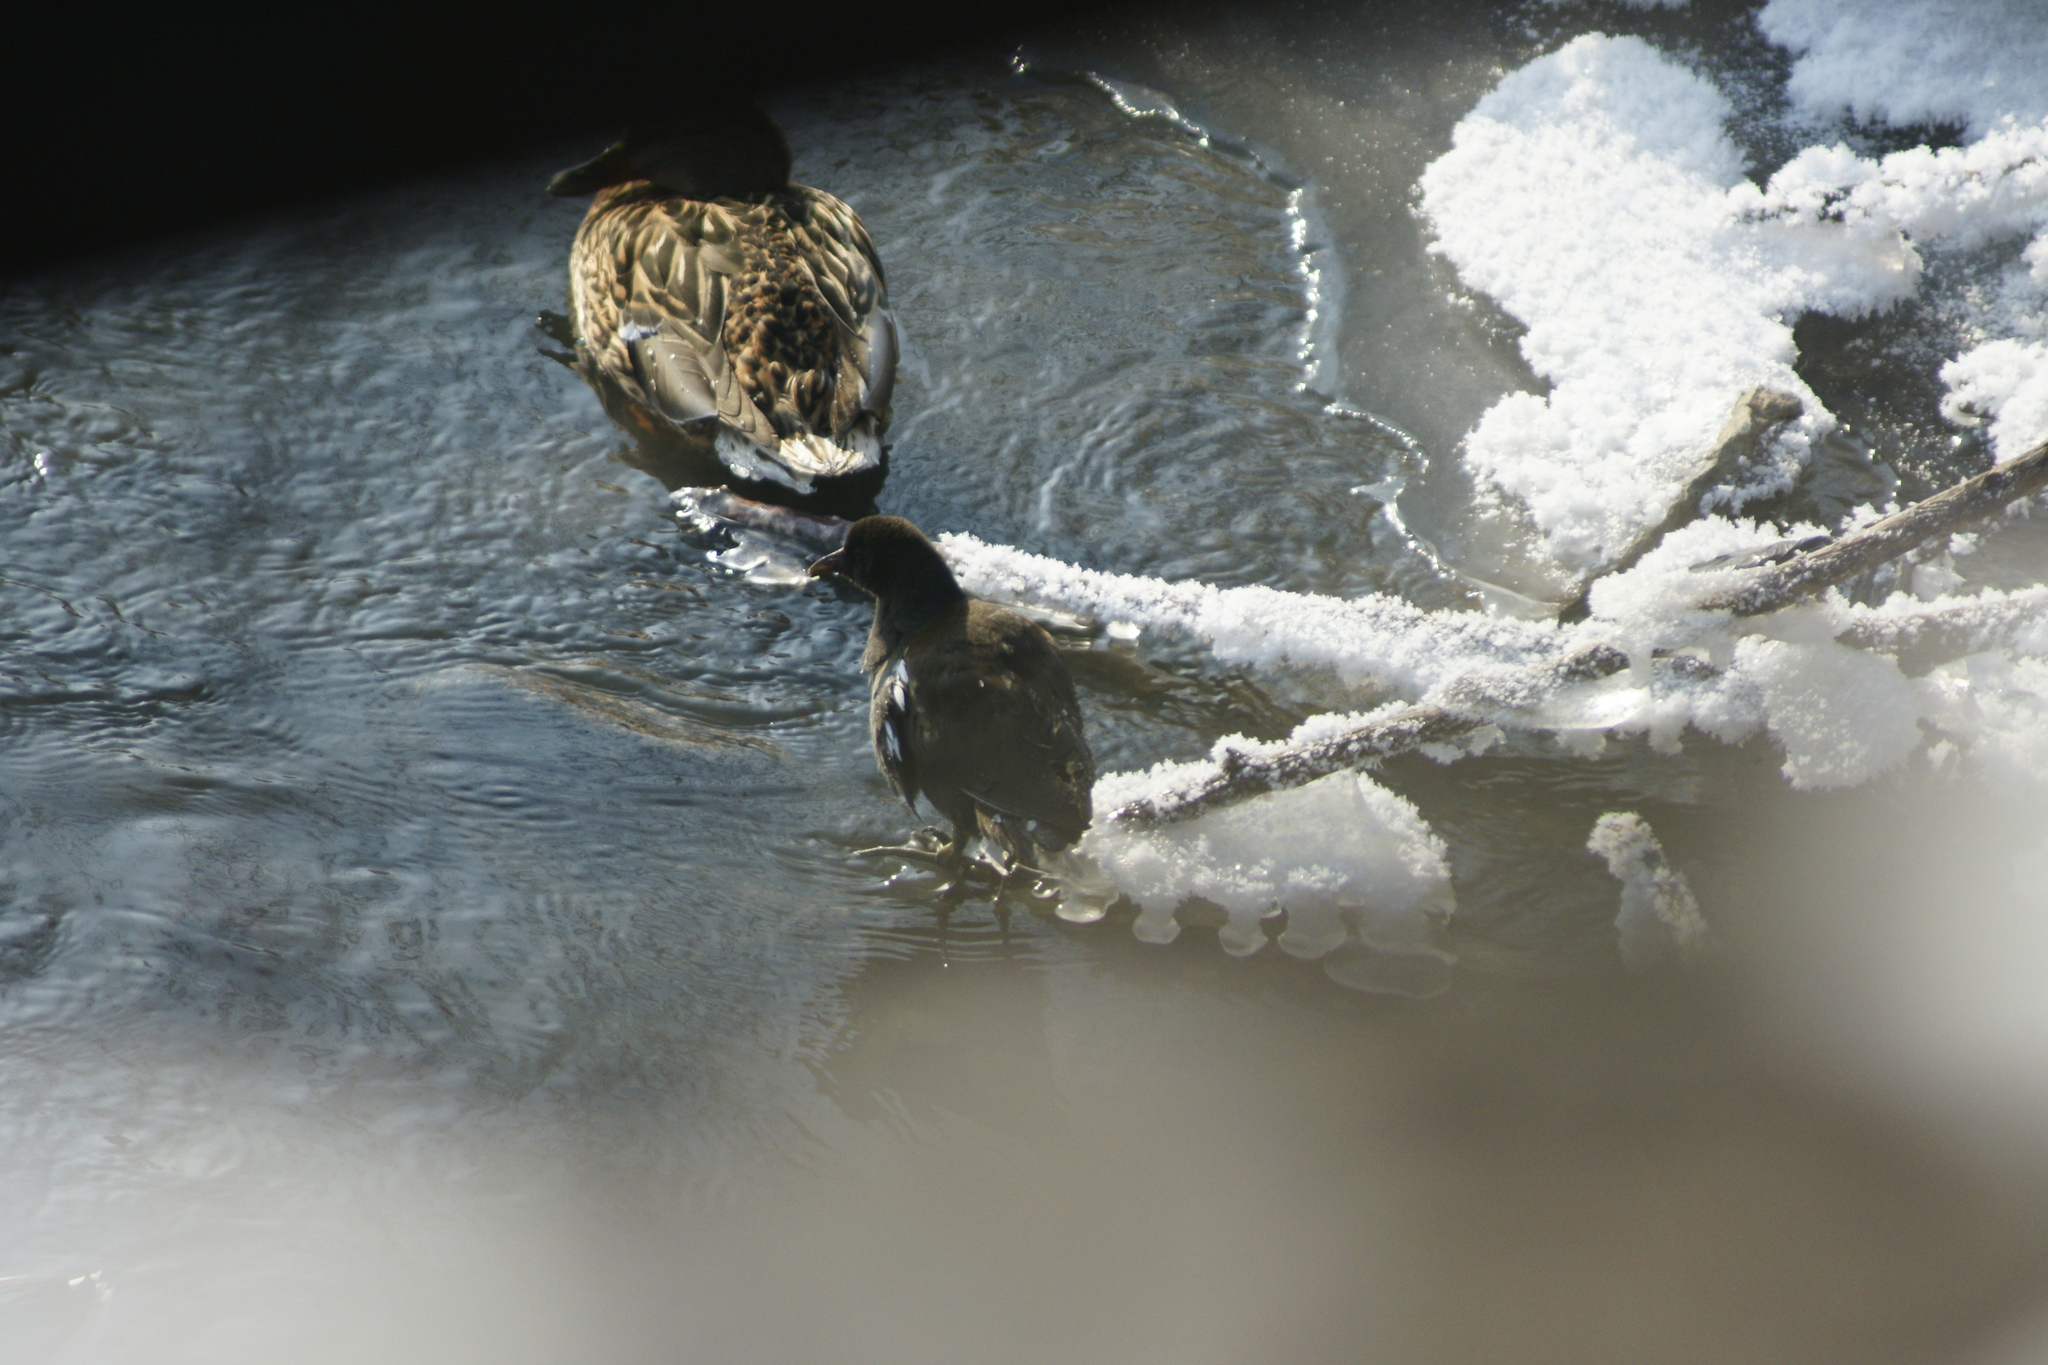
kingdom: Animalia
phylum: Chordata
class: Aves
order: Gruiformes
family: Rallidae
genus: Gallinula
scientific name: Gallinula chloropus
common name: Common moorhen
